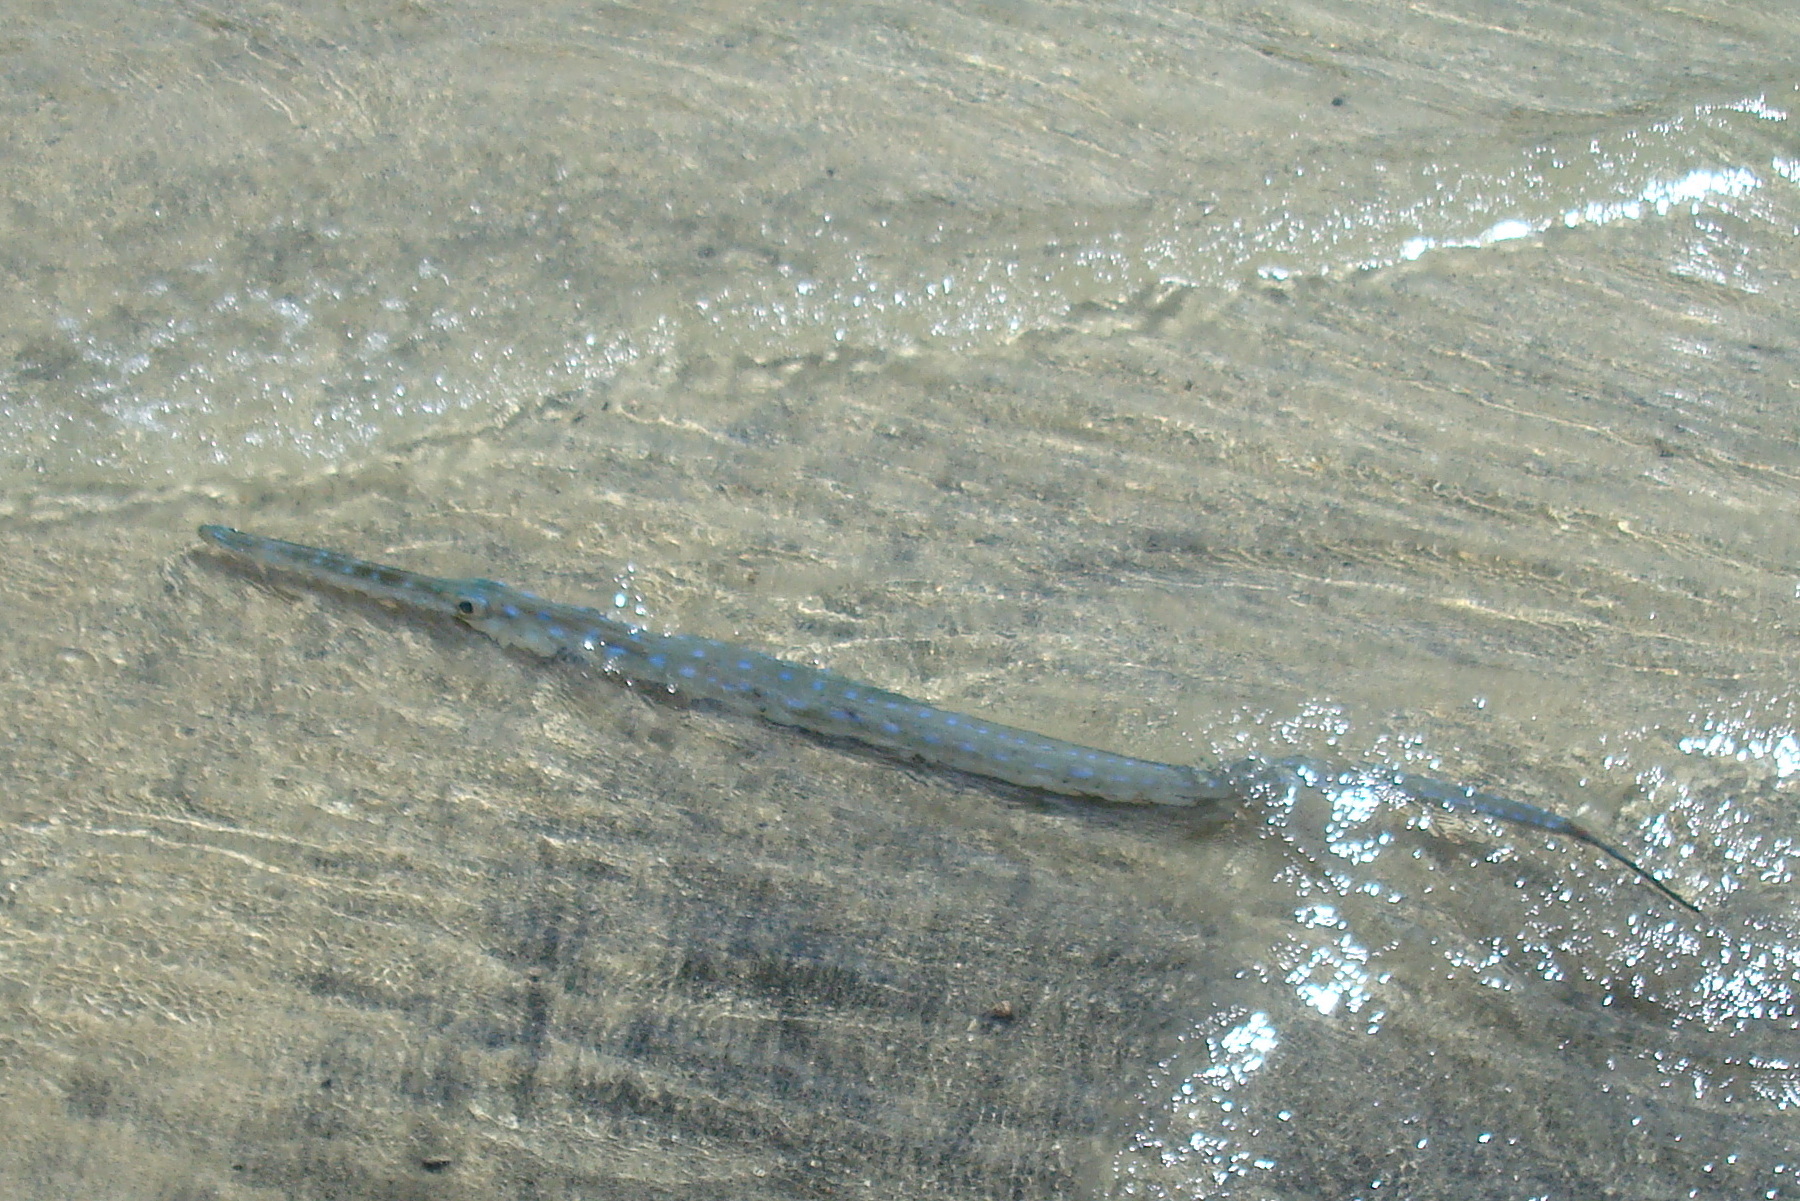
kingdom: Animalia
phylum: Chordata
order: Syngnathiformes
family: Fistulariidae
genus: Fistularia
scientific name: Fistularia tabacaria
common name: Blue-spotted cornetfish
